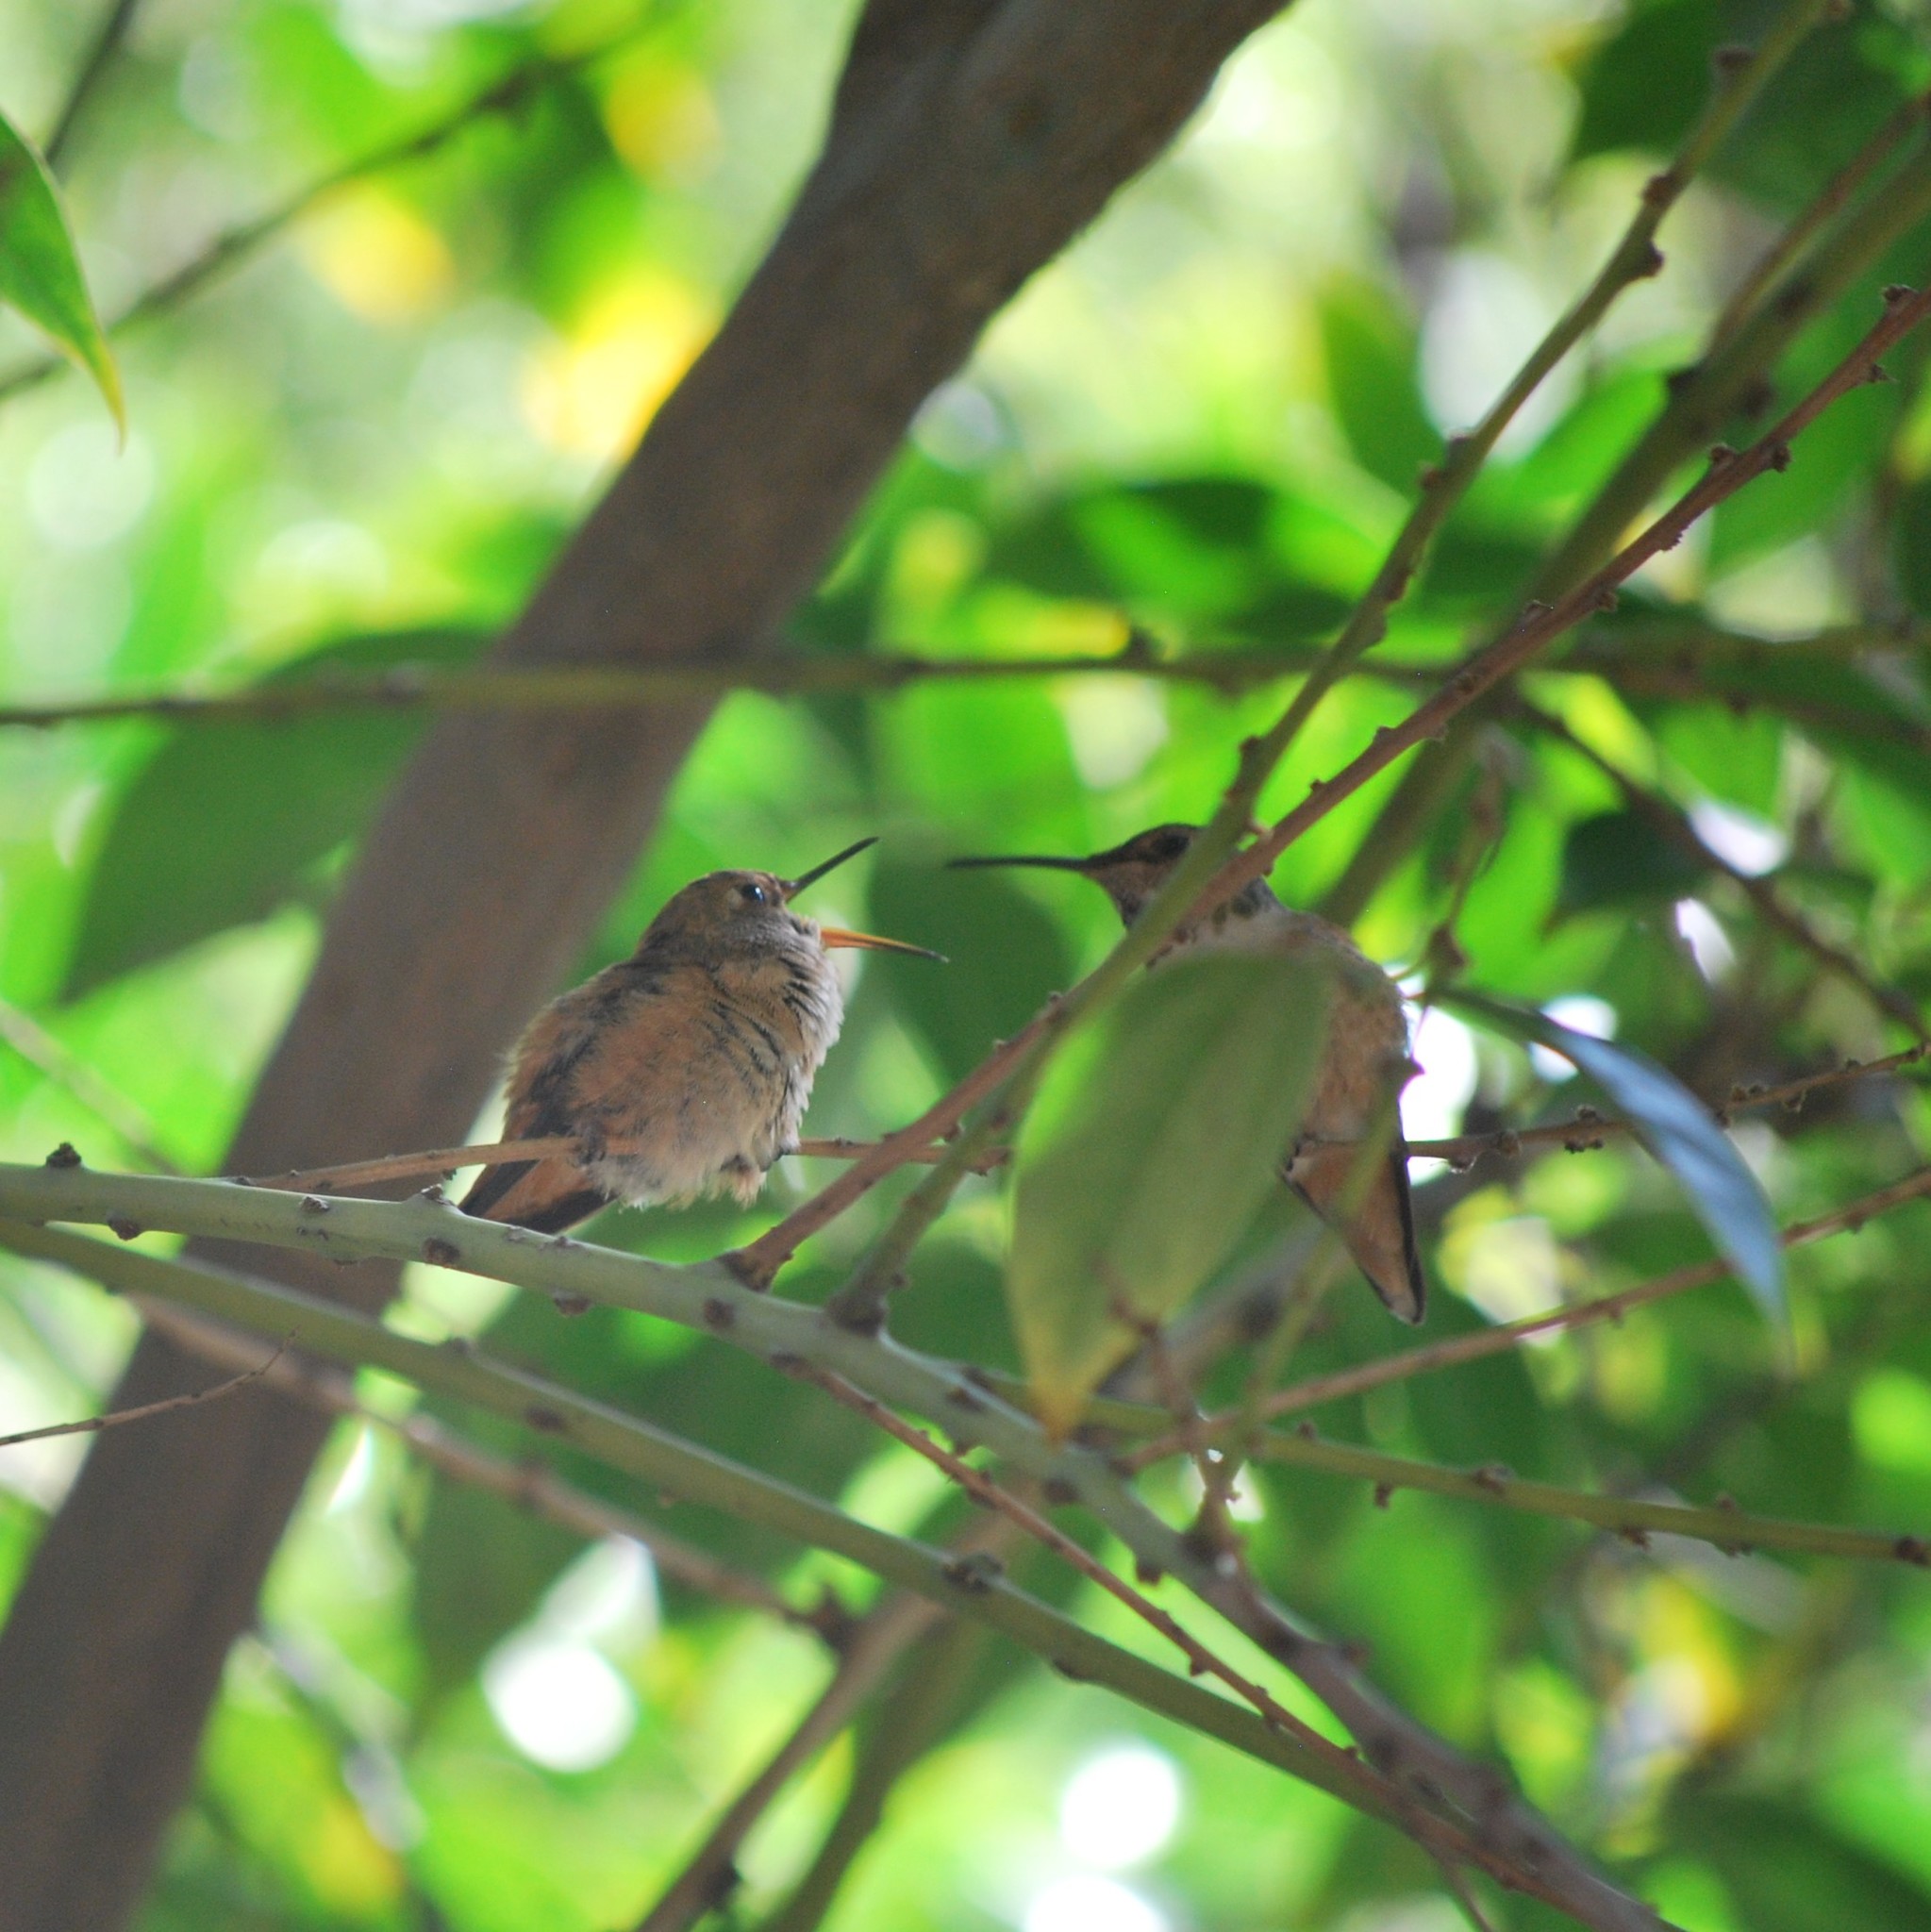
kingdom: Animalia
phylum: Chordata
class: Aves
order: Apodiformes
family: Trochilidae
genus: Selasphorus
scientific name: Selasphorus sasin
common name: Allen's hummingbird
